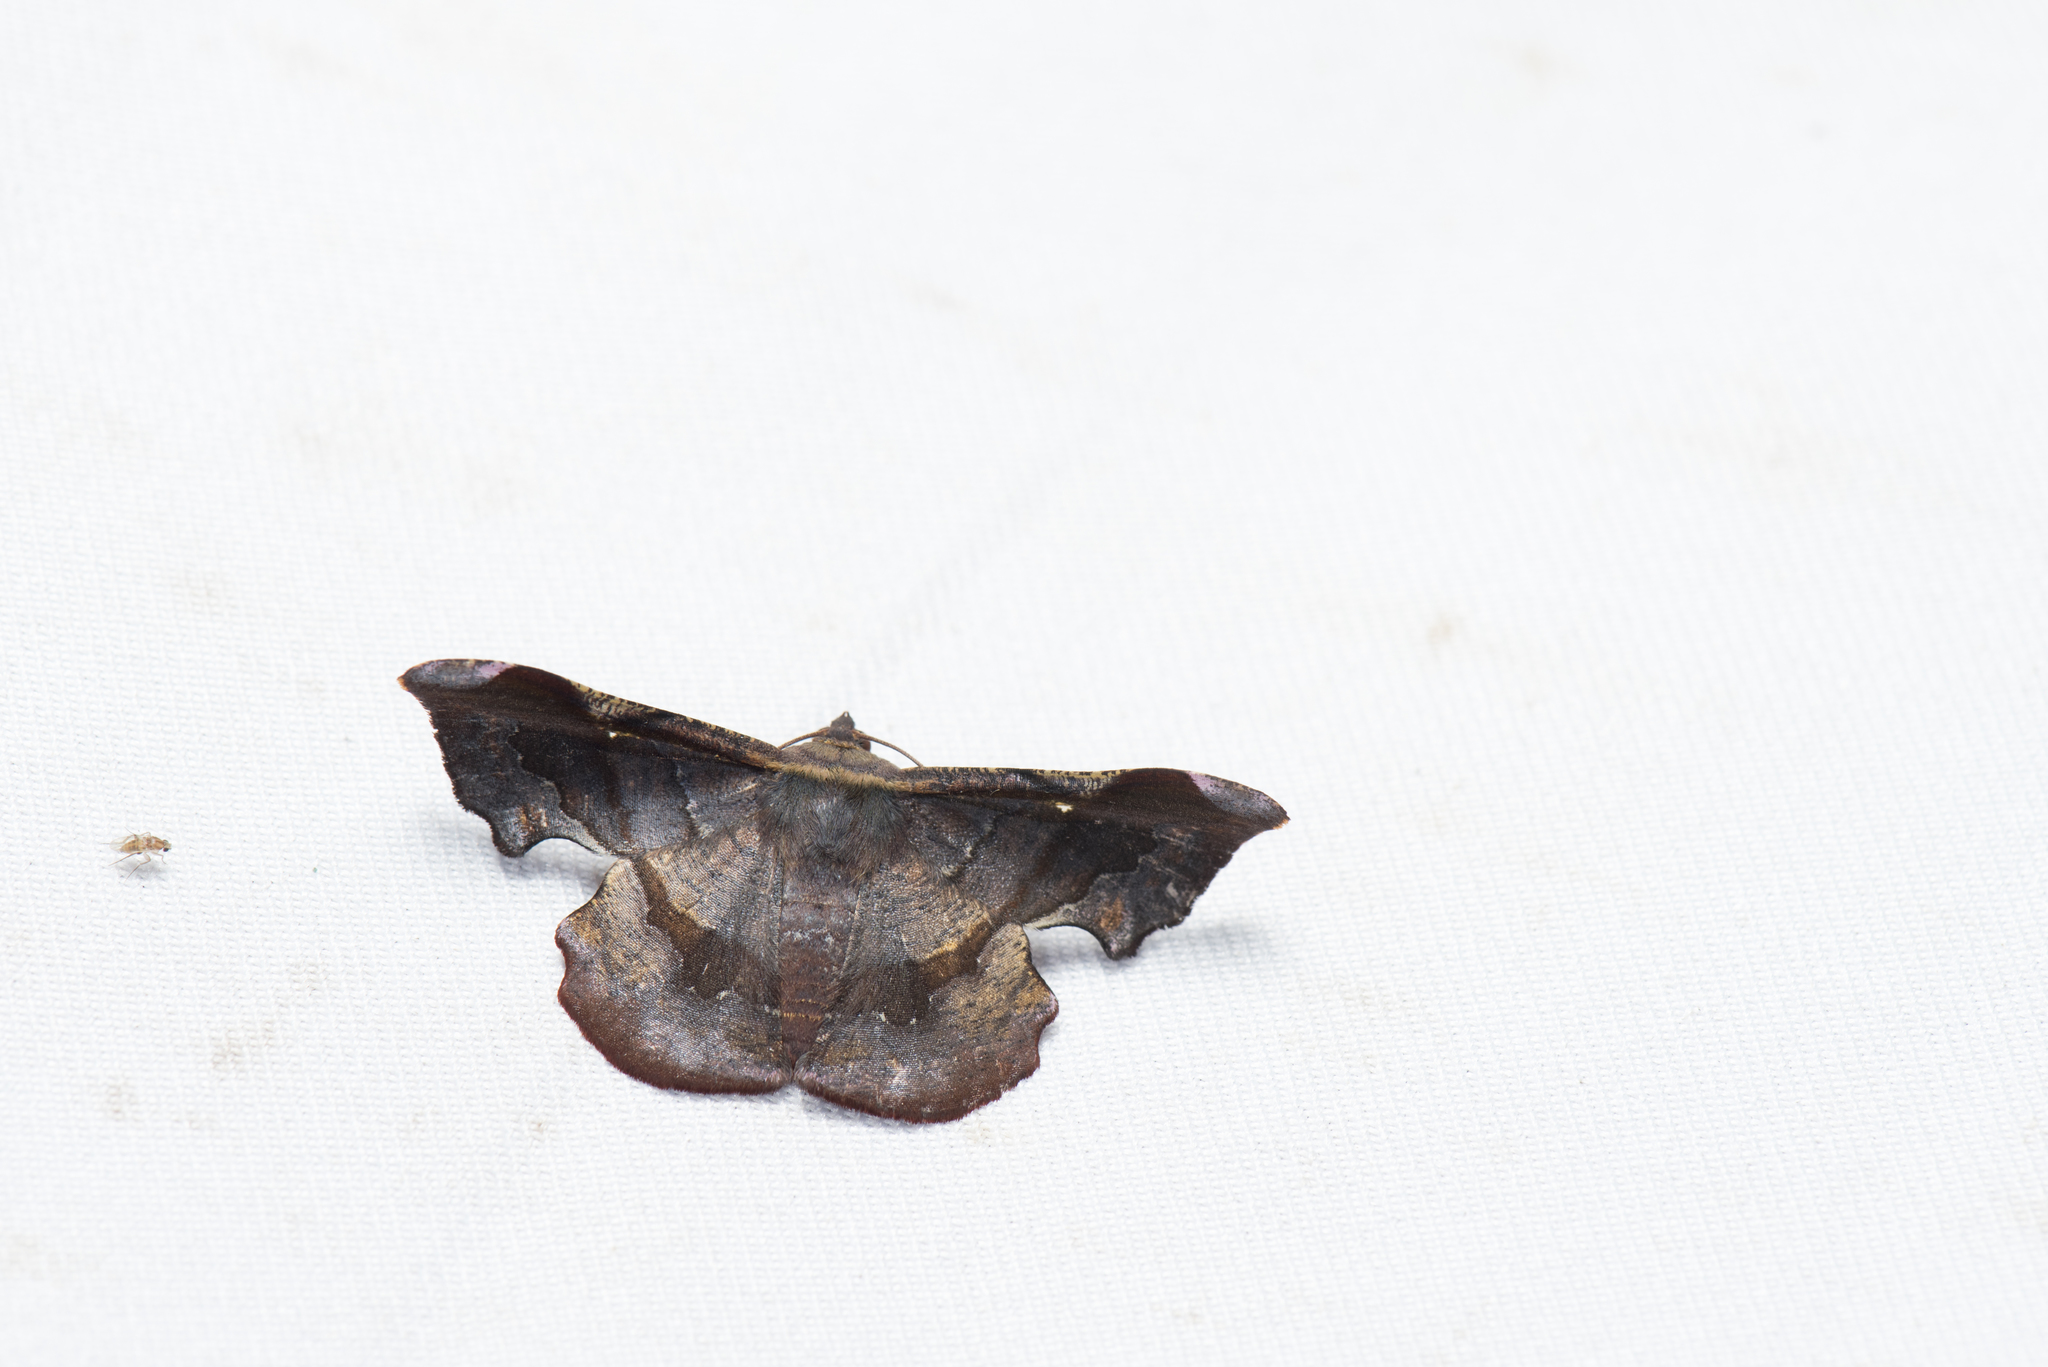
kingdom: Animalia
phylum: Arthropoda
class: Insecta
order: Lepidoptera
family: Geometridae
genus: Fascellina
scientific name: Fascellina chromataria
